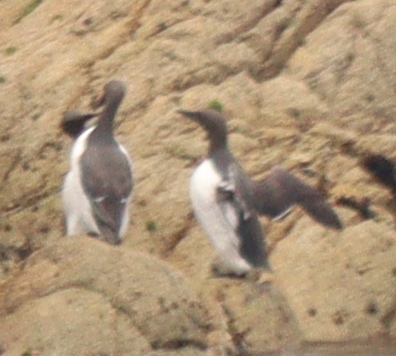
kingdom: Animalia
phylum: Chordata
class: Aves
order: Charadriiformes
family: Alcidae
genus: Uria
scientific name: Uria aalge
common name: Common murre
